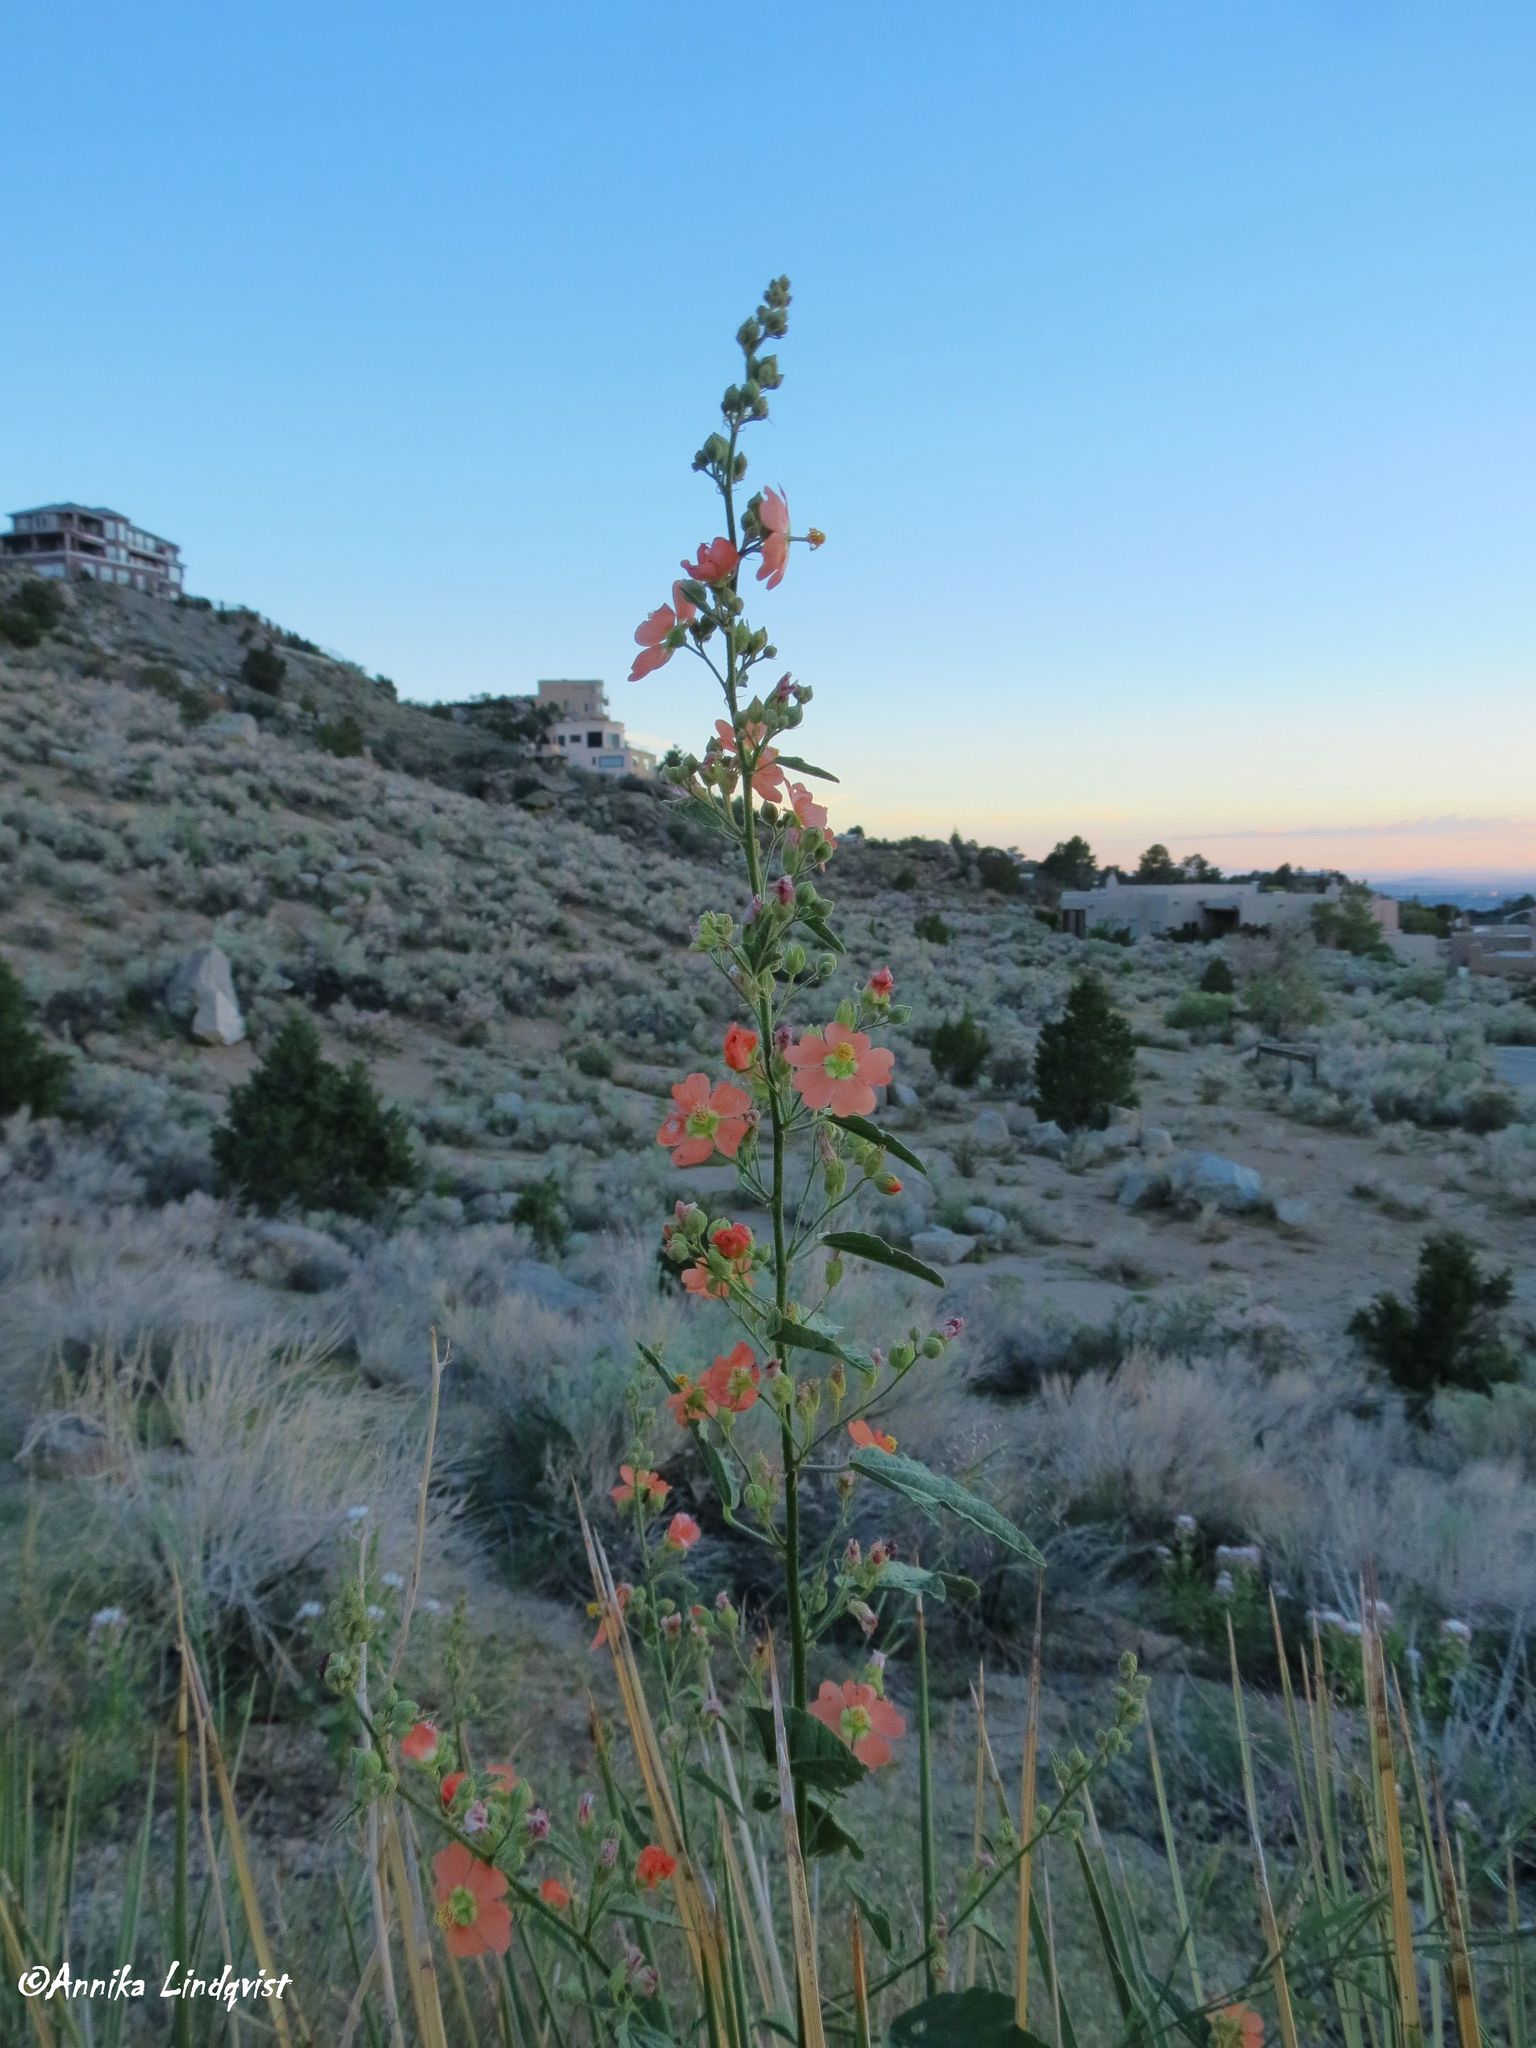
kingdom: Plantae
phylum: Tracheophyta
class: Magnoliopsida
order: Malvales
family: Malvaceae
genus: Sphaeralcea
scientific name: Sphaeralcea fendleri
